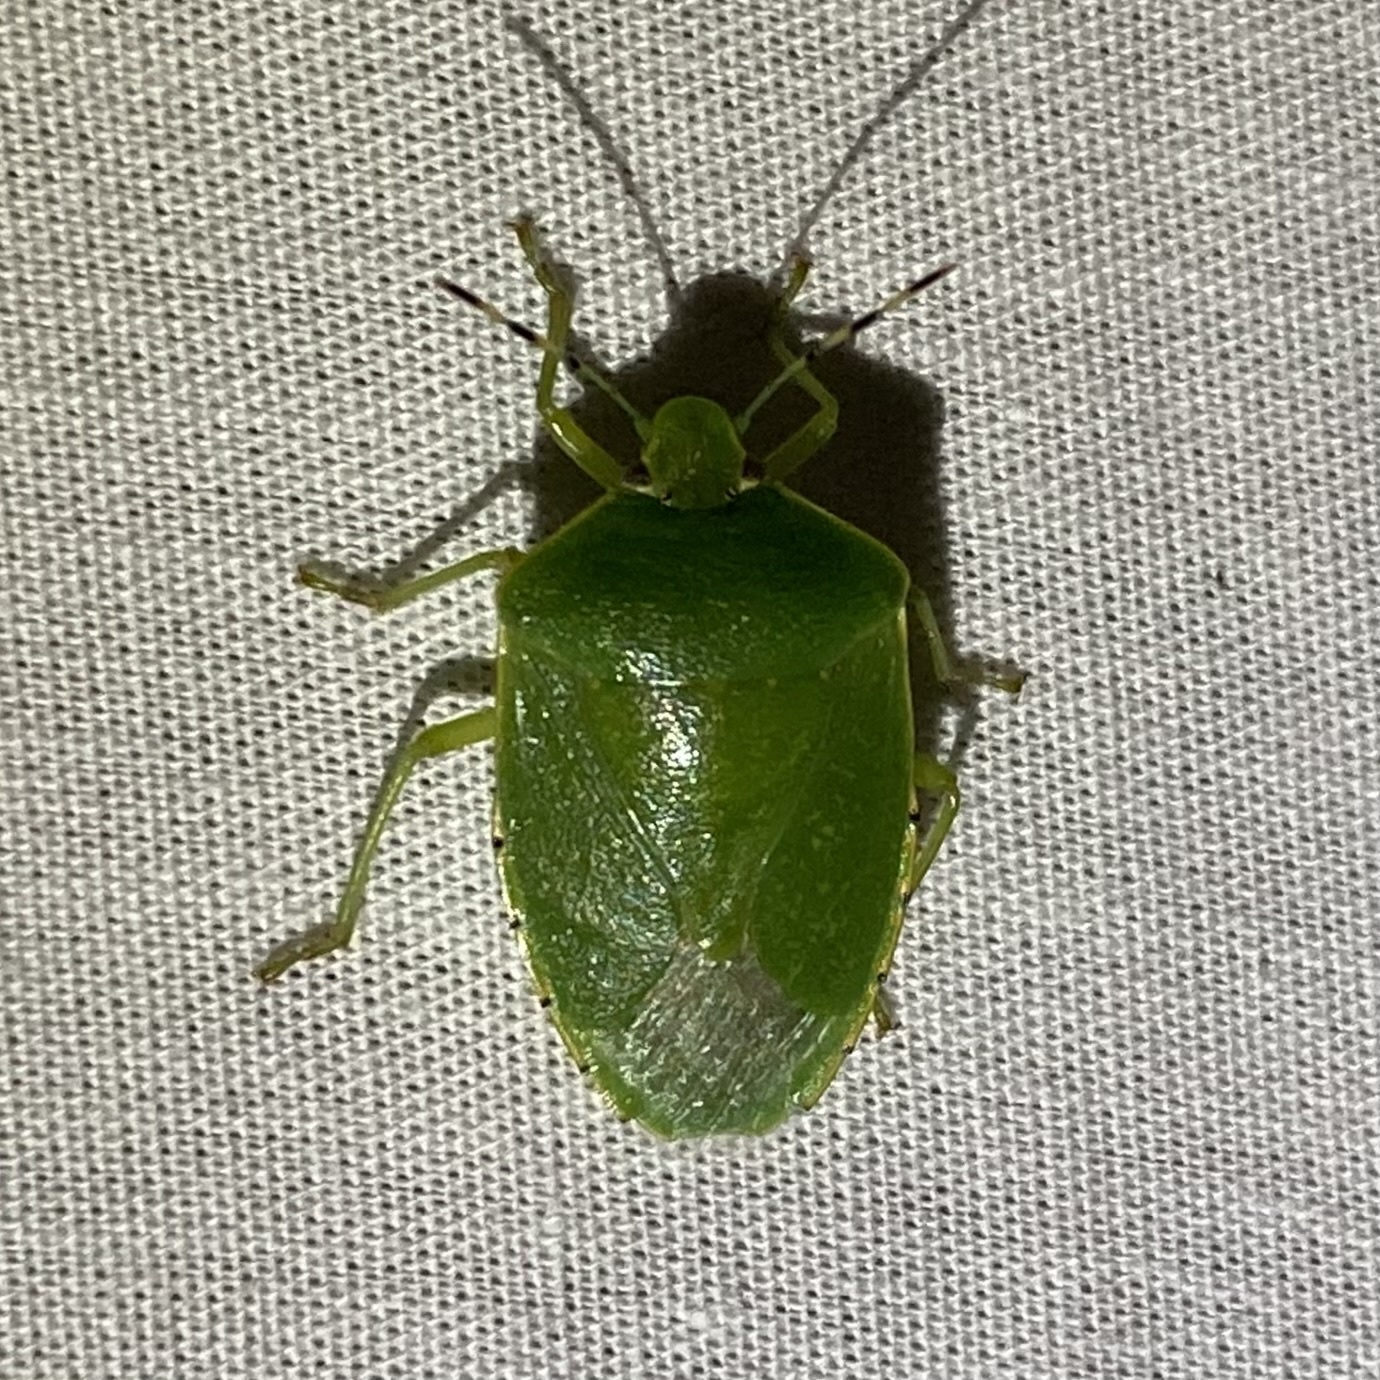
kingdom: Animalia
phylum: Arthropoda
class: Insecta
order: Hemiptera
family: Pentatomidae
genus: Chinavia
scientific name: Chinavia hilaris
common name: Green stink bug
